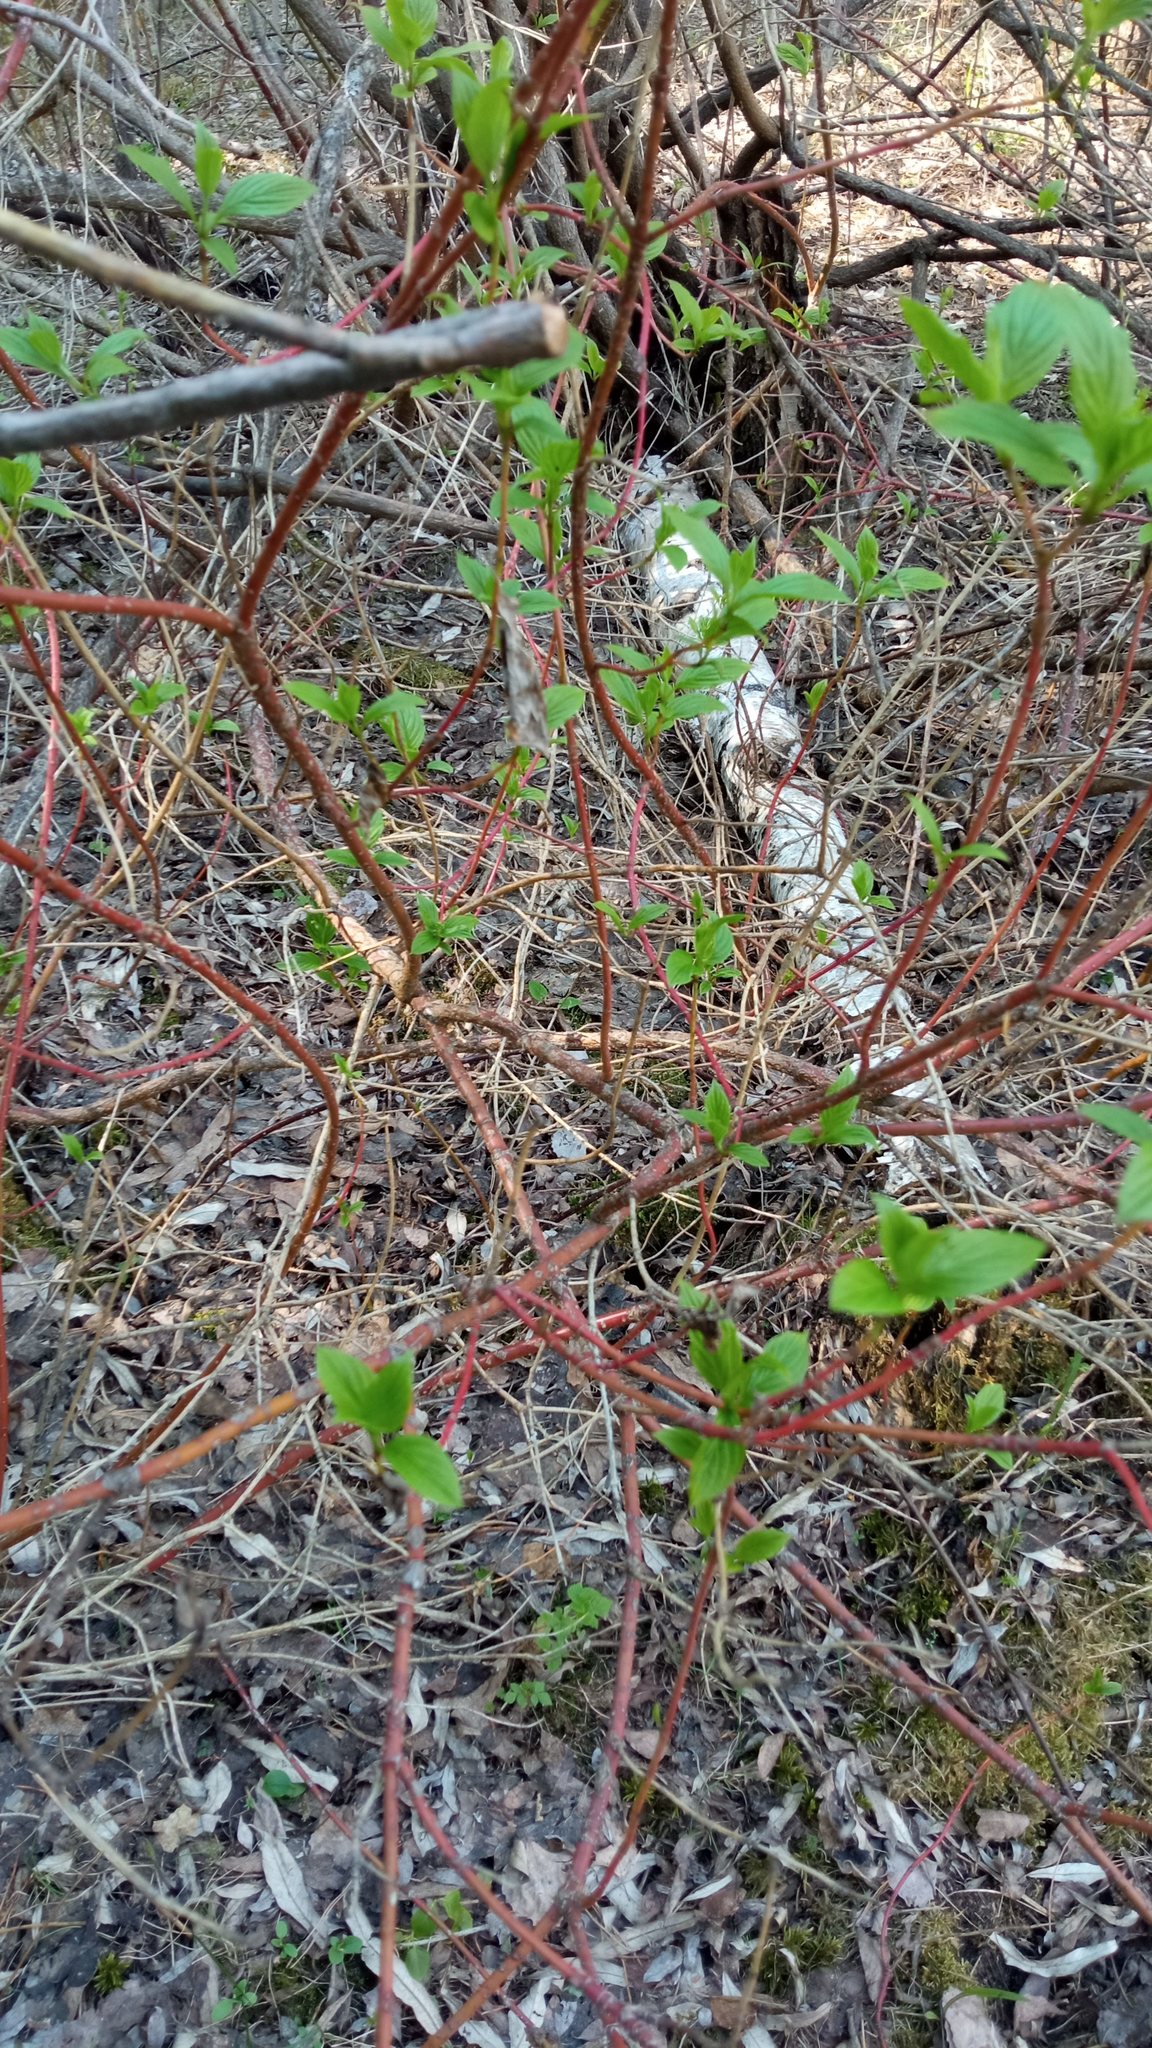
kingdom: Plantae
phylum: Tracheophyta
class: Magnoliopsida
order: Cornales
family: Cornaceae
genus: Cornus
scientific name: Cornus alba
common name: White dogwood
